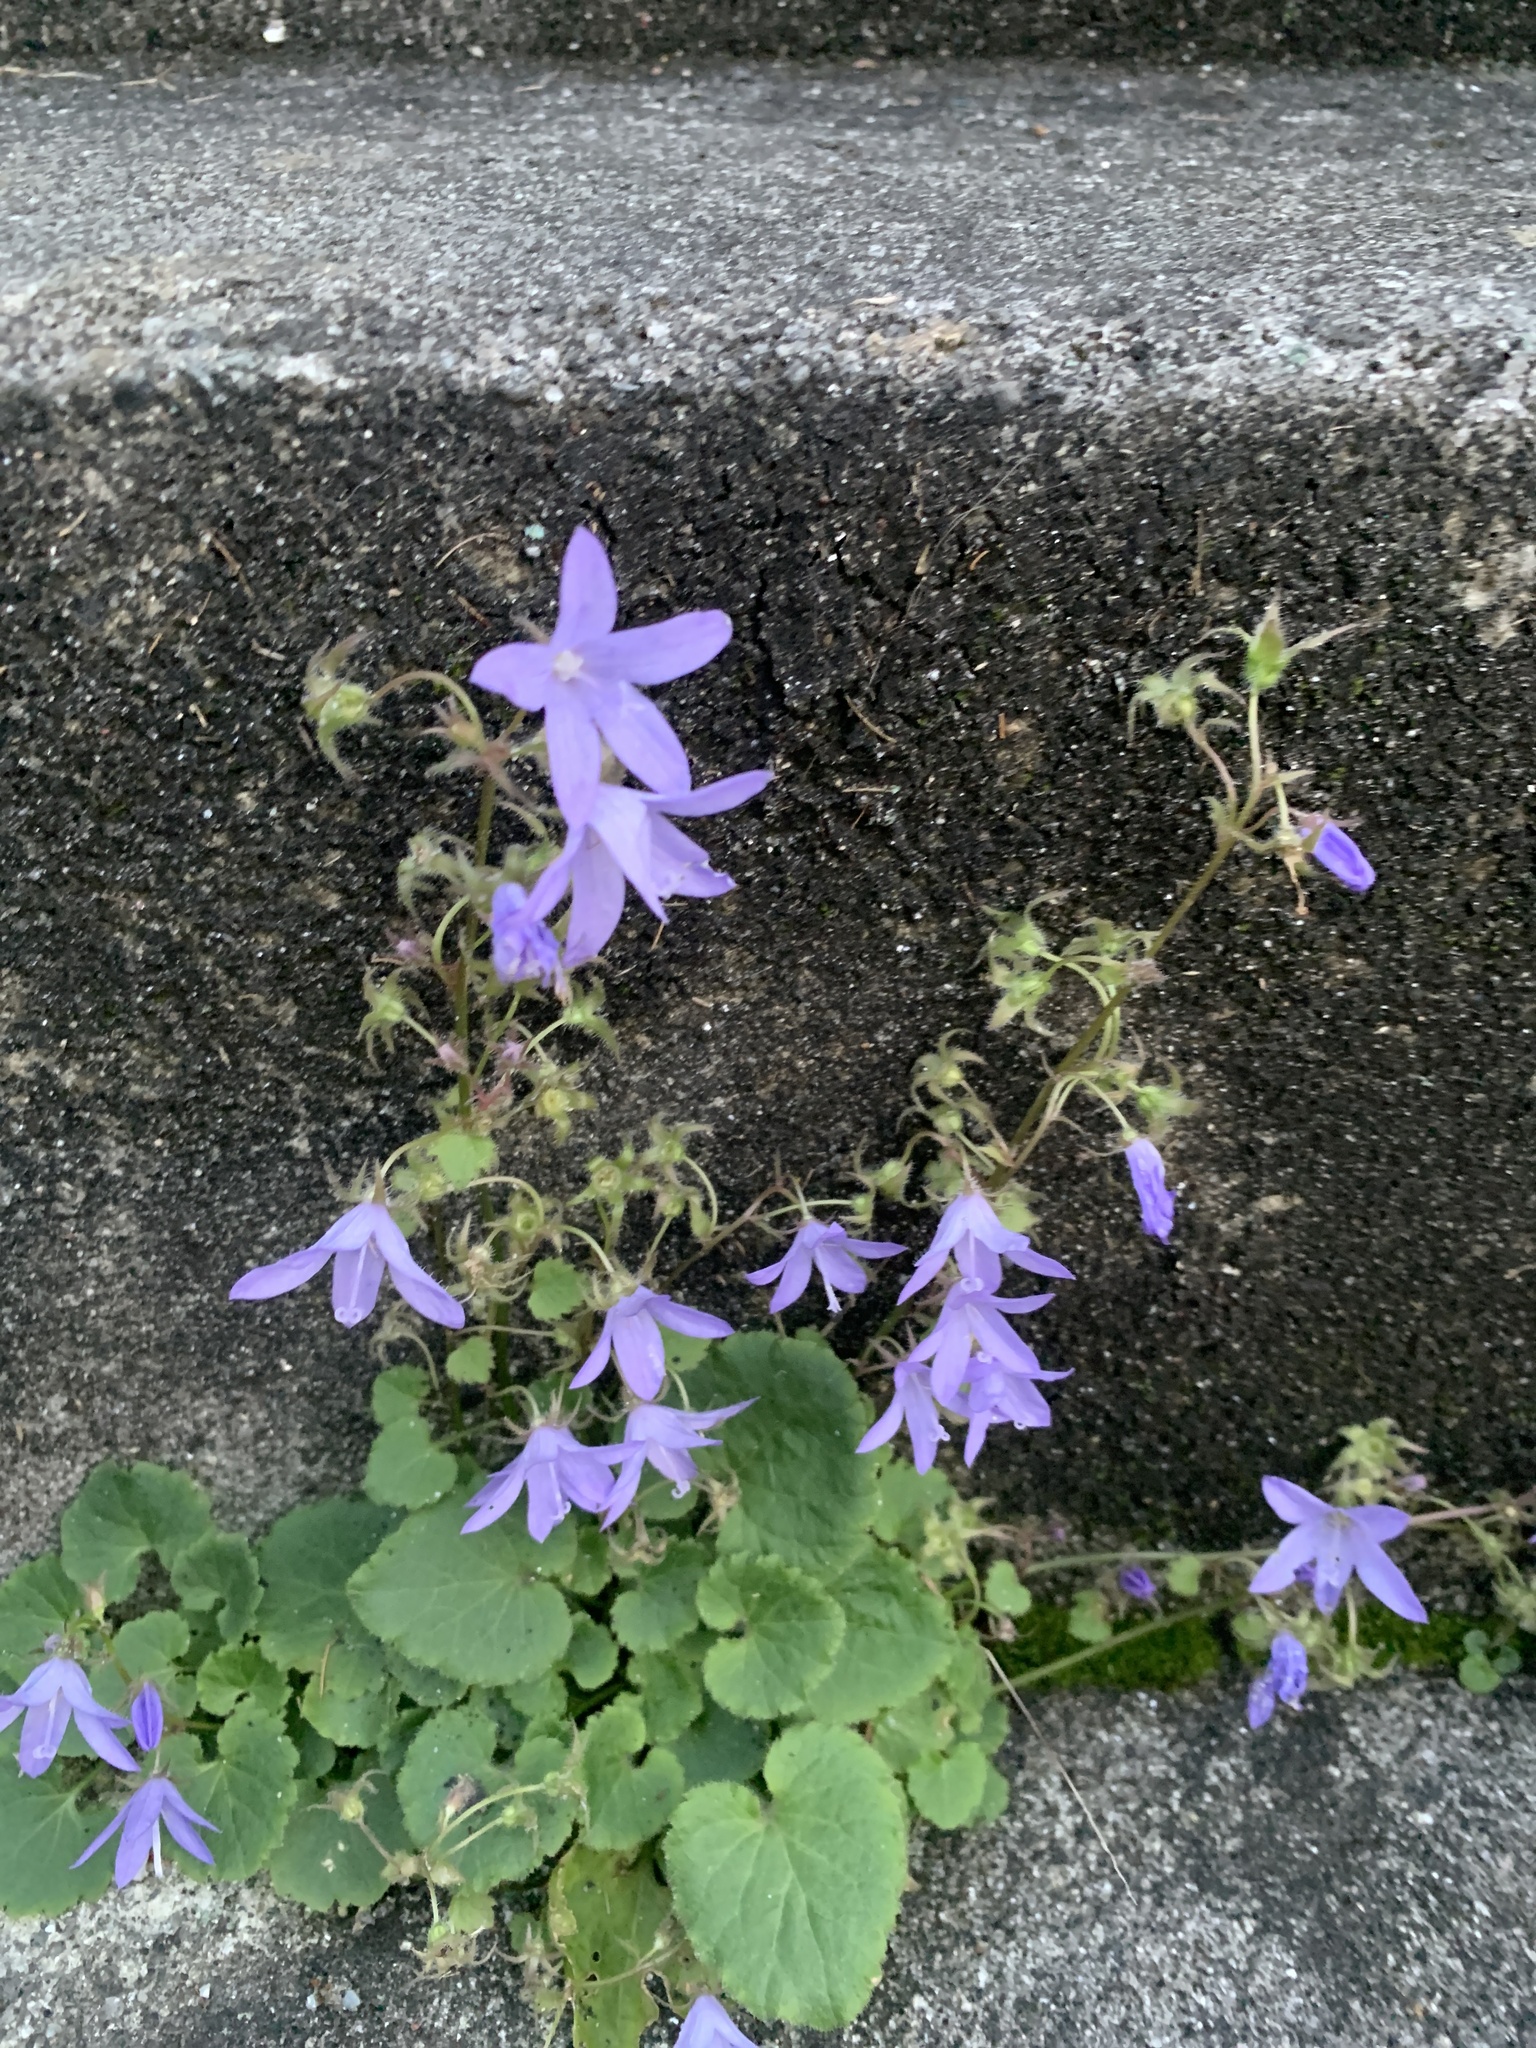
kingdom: Plantae
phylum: Tracheophyta
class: Magnoliopsida
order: Asterales
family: Campanulaceae
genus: Campanula
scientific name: Campanula poscharskyana
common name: Trailing bellflower
